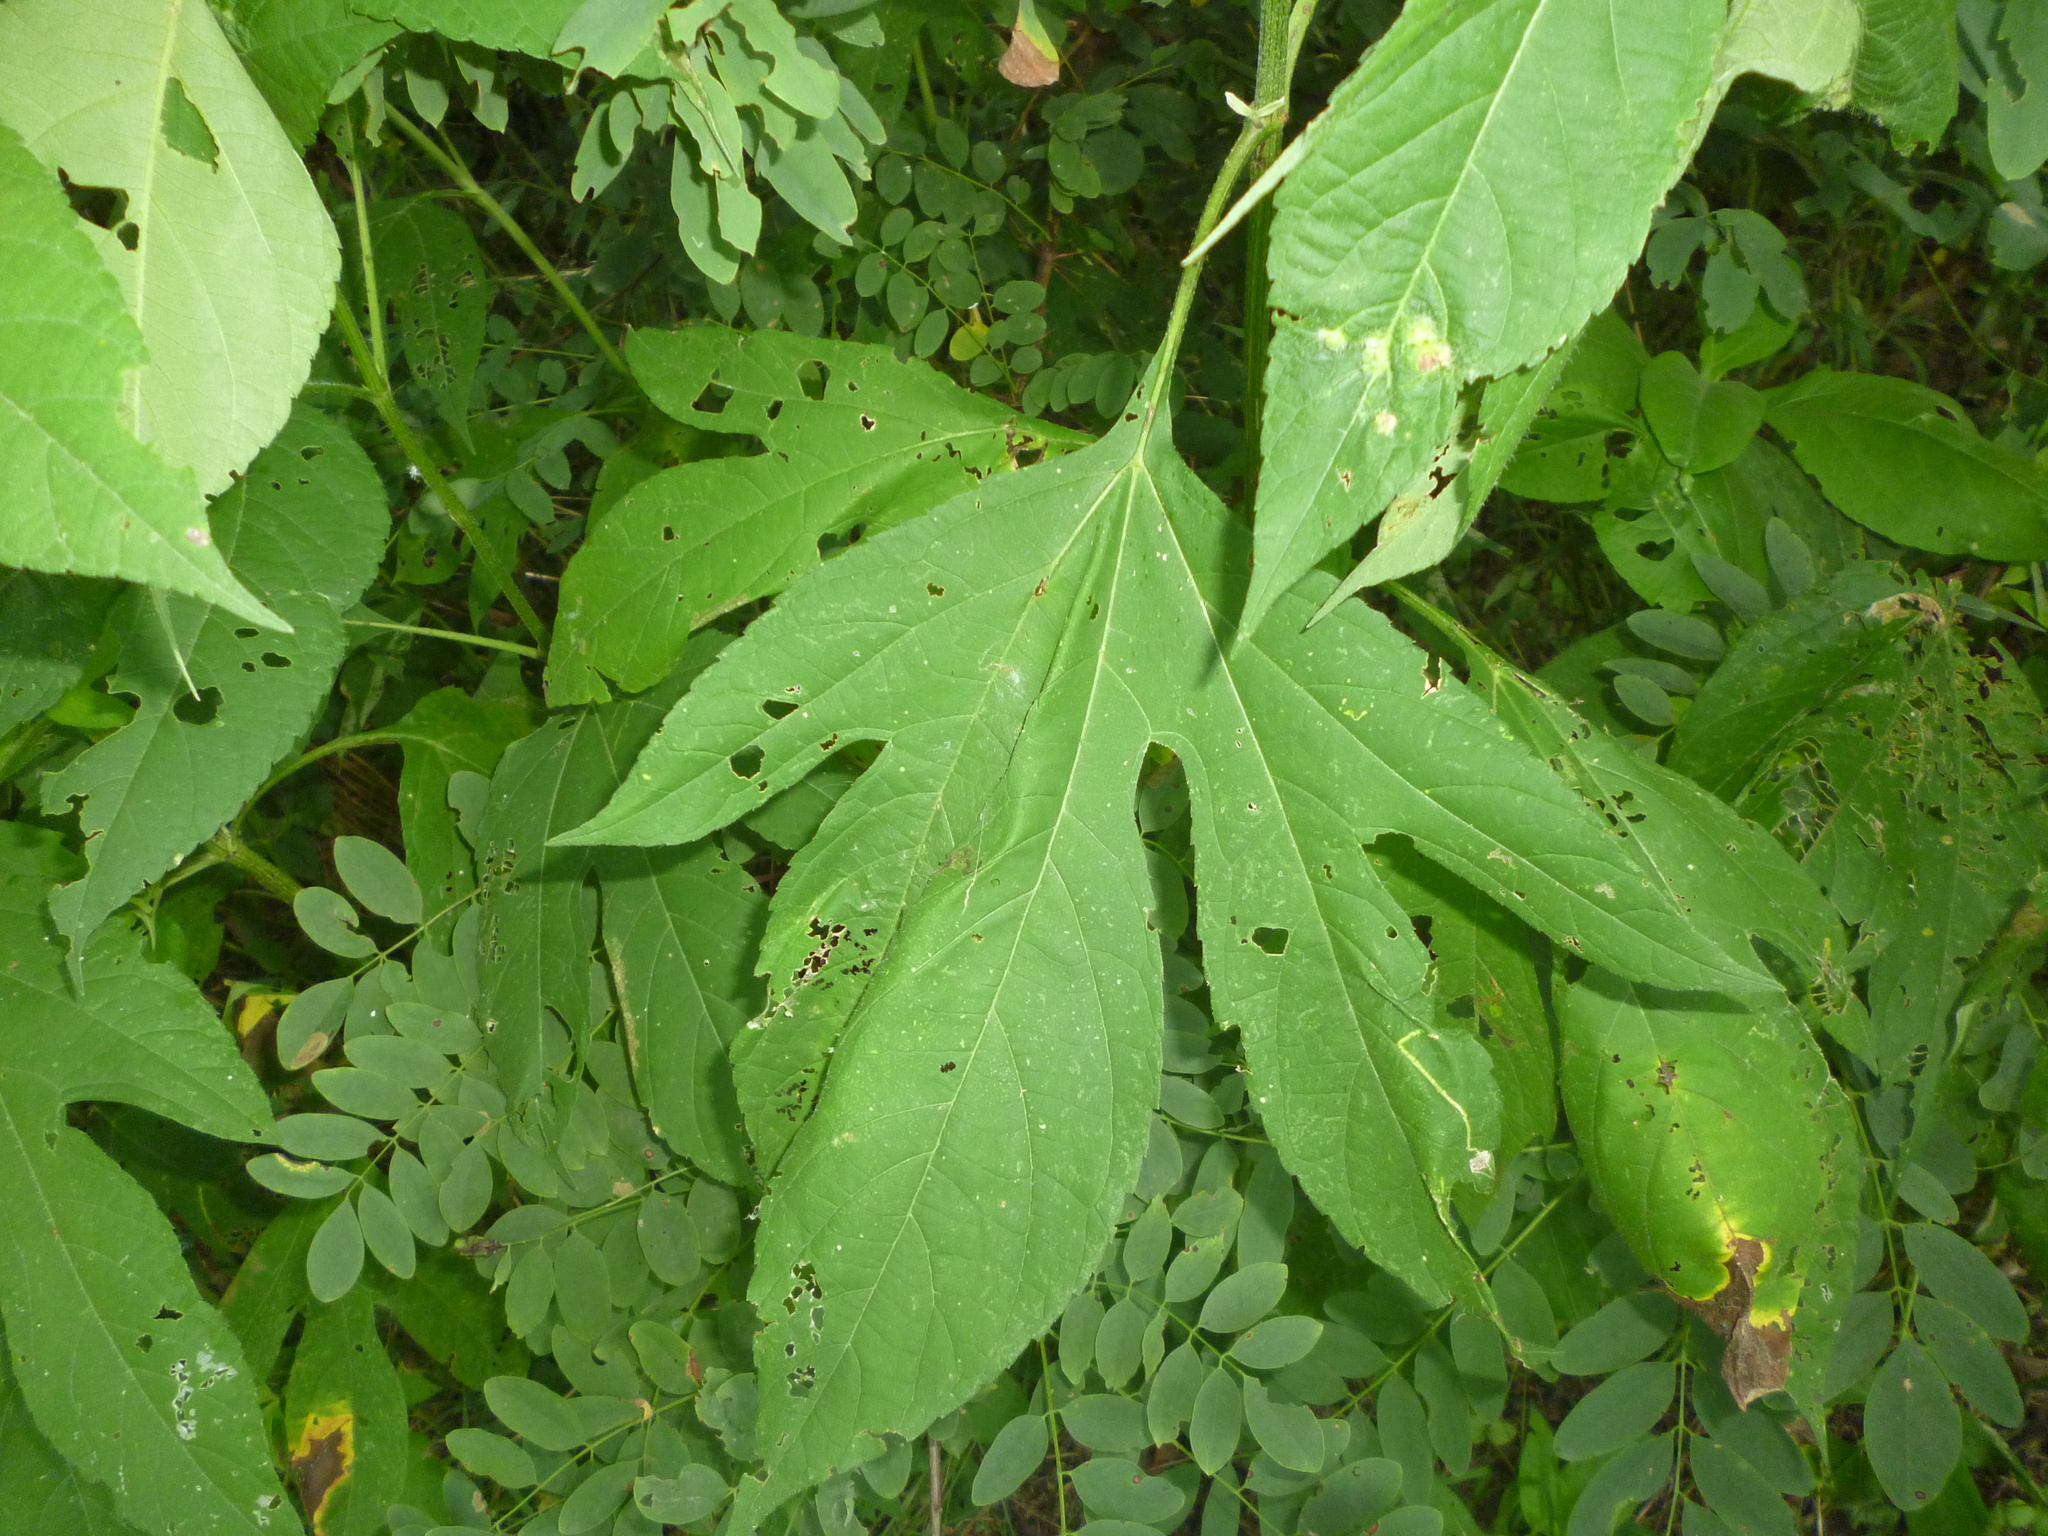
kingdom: Plantae
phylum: Tracheophyta
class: Magnoliopsida
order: Asterales
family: Asteraceae
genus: Ambrosia
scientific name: Ambrosia trifida
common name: Giant ragweed
